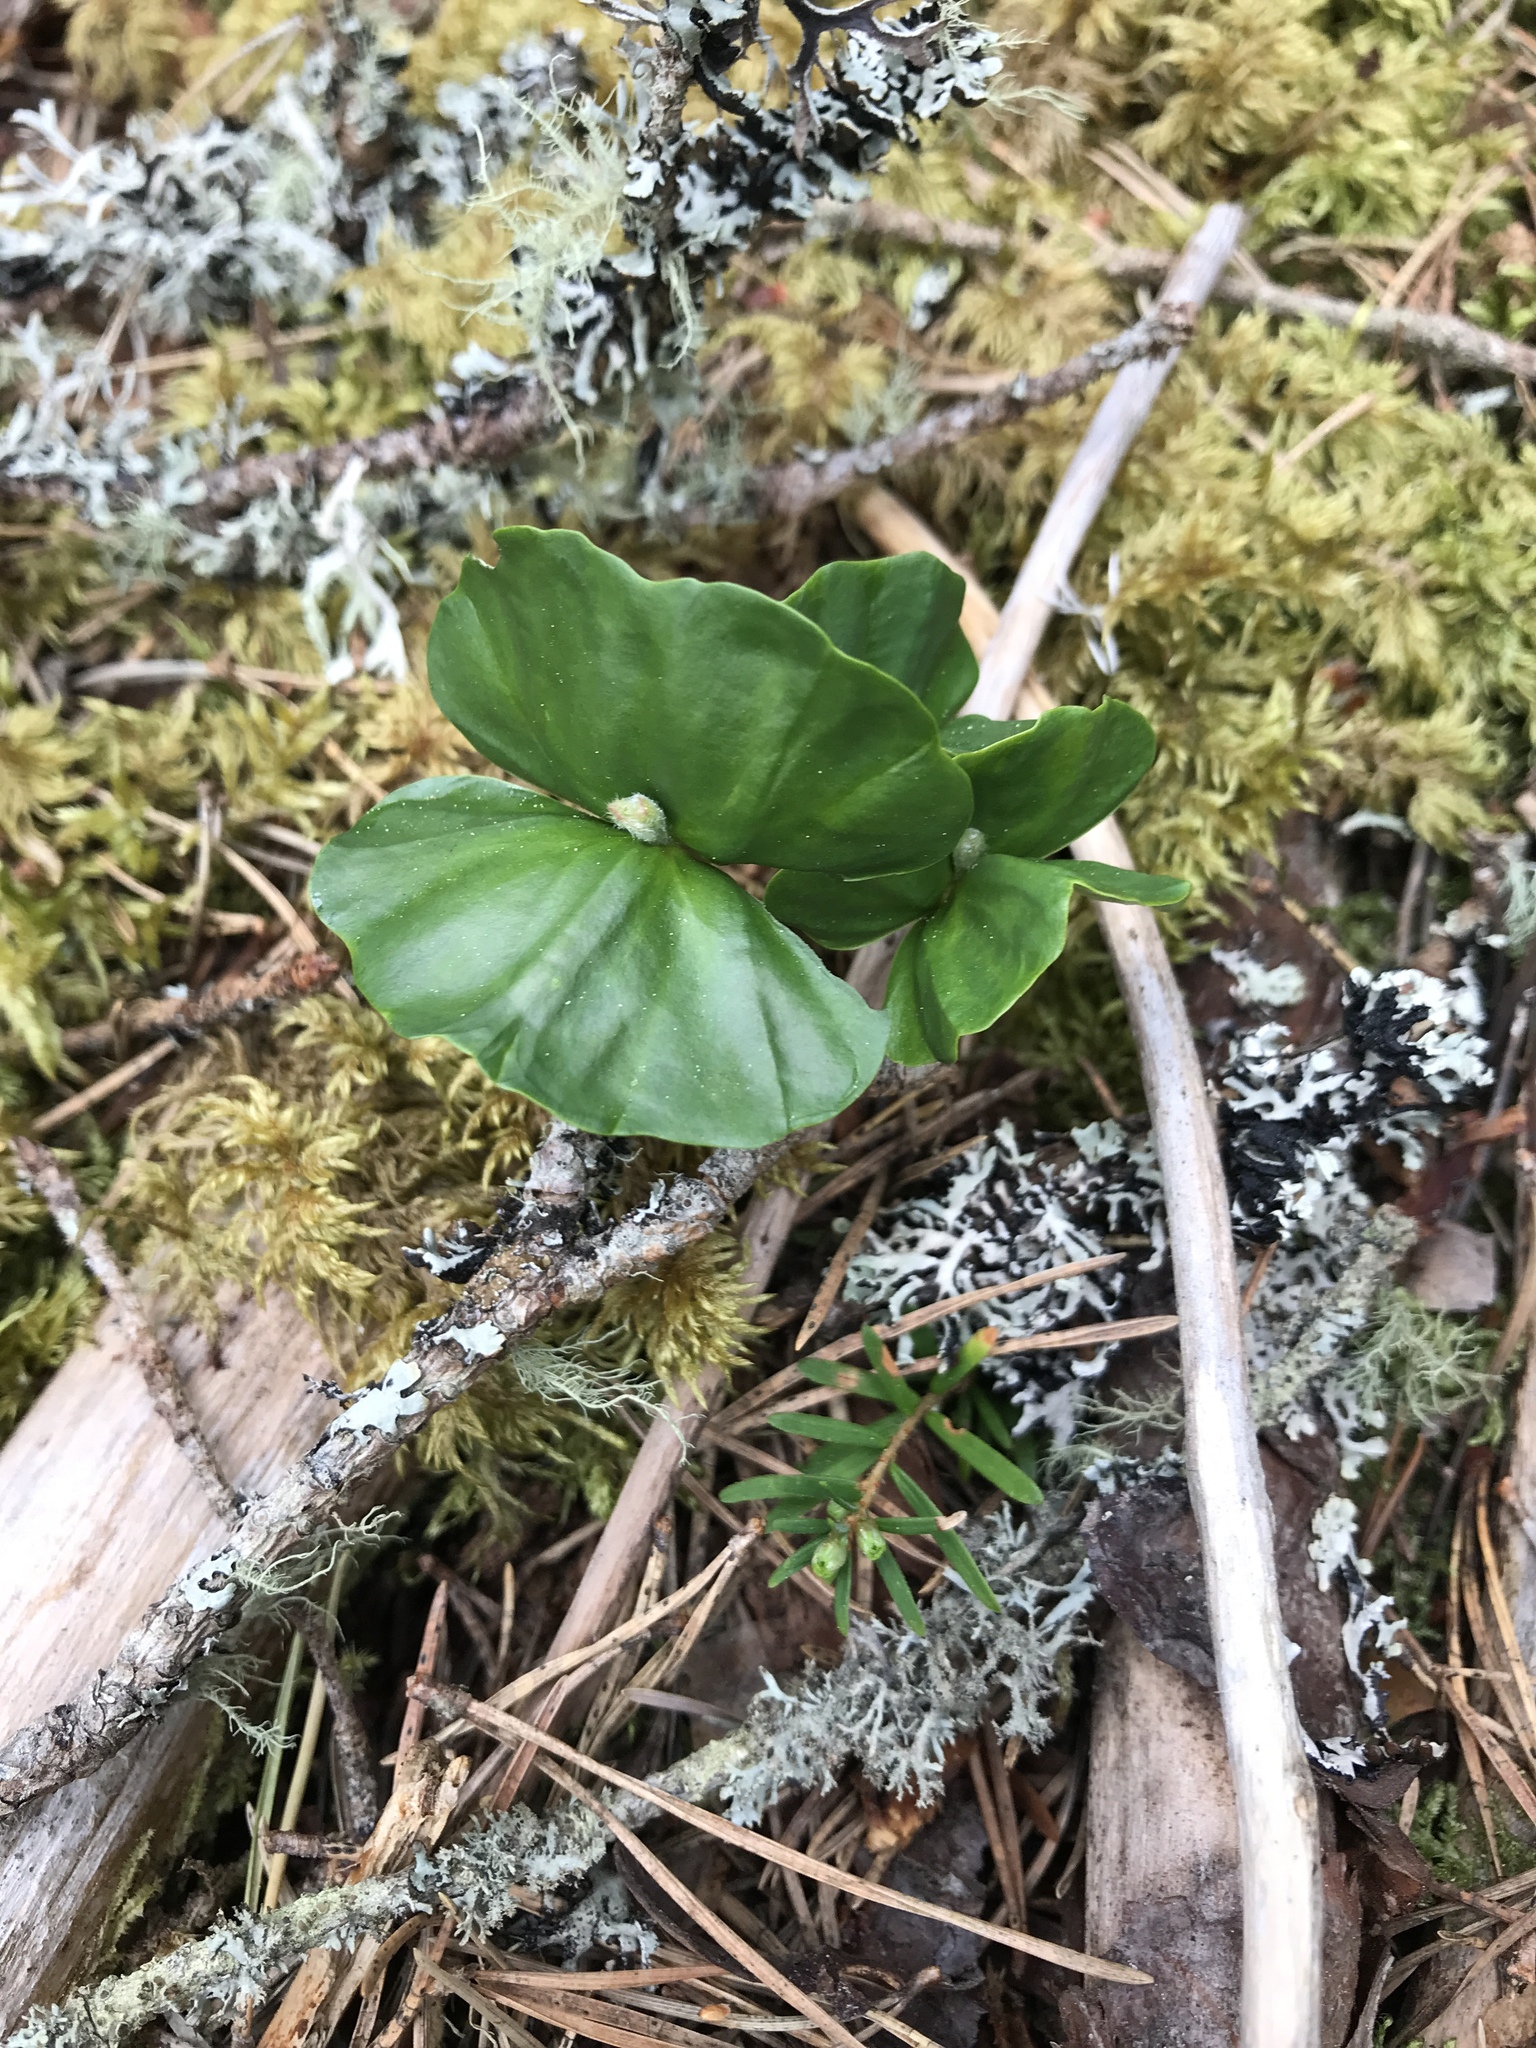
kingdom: Plantae
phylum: Tracheophyta
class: Magnoliopsida
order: Fagales
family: Fagaceae
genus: Fagus
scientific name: Fagus sylvatica
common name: Beech
